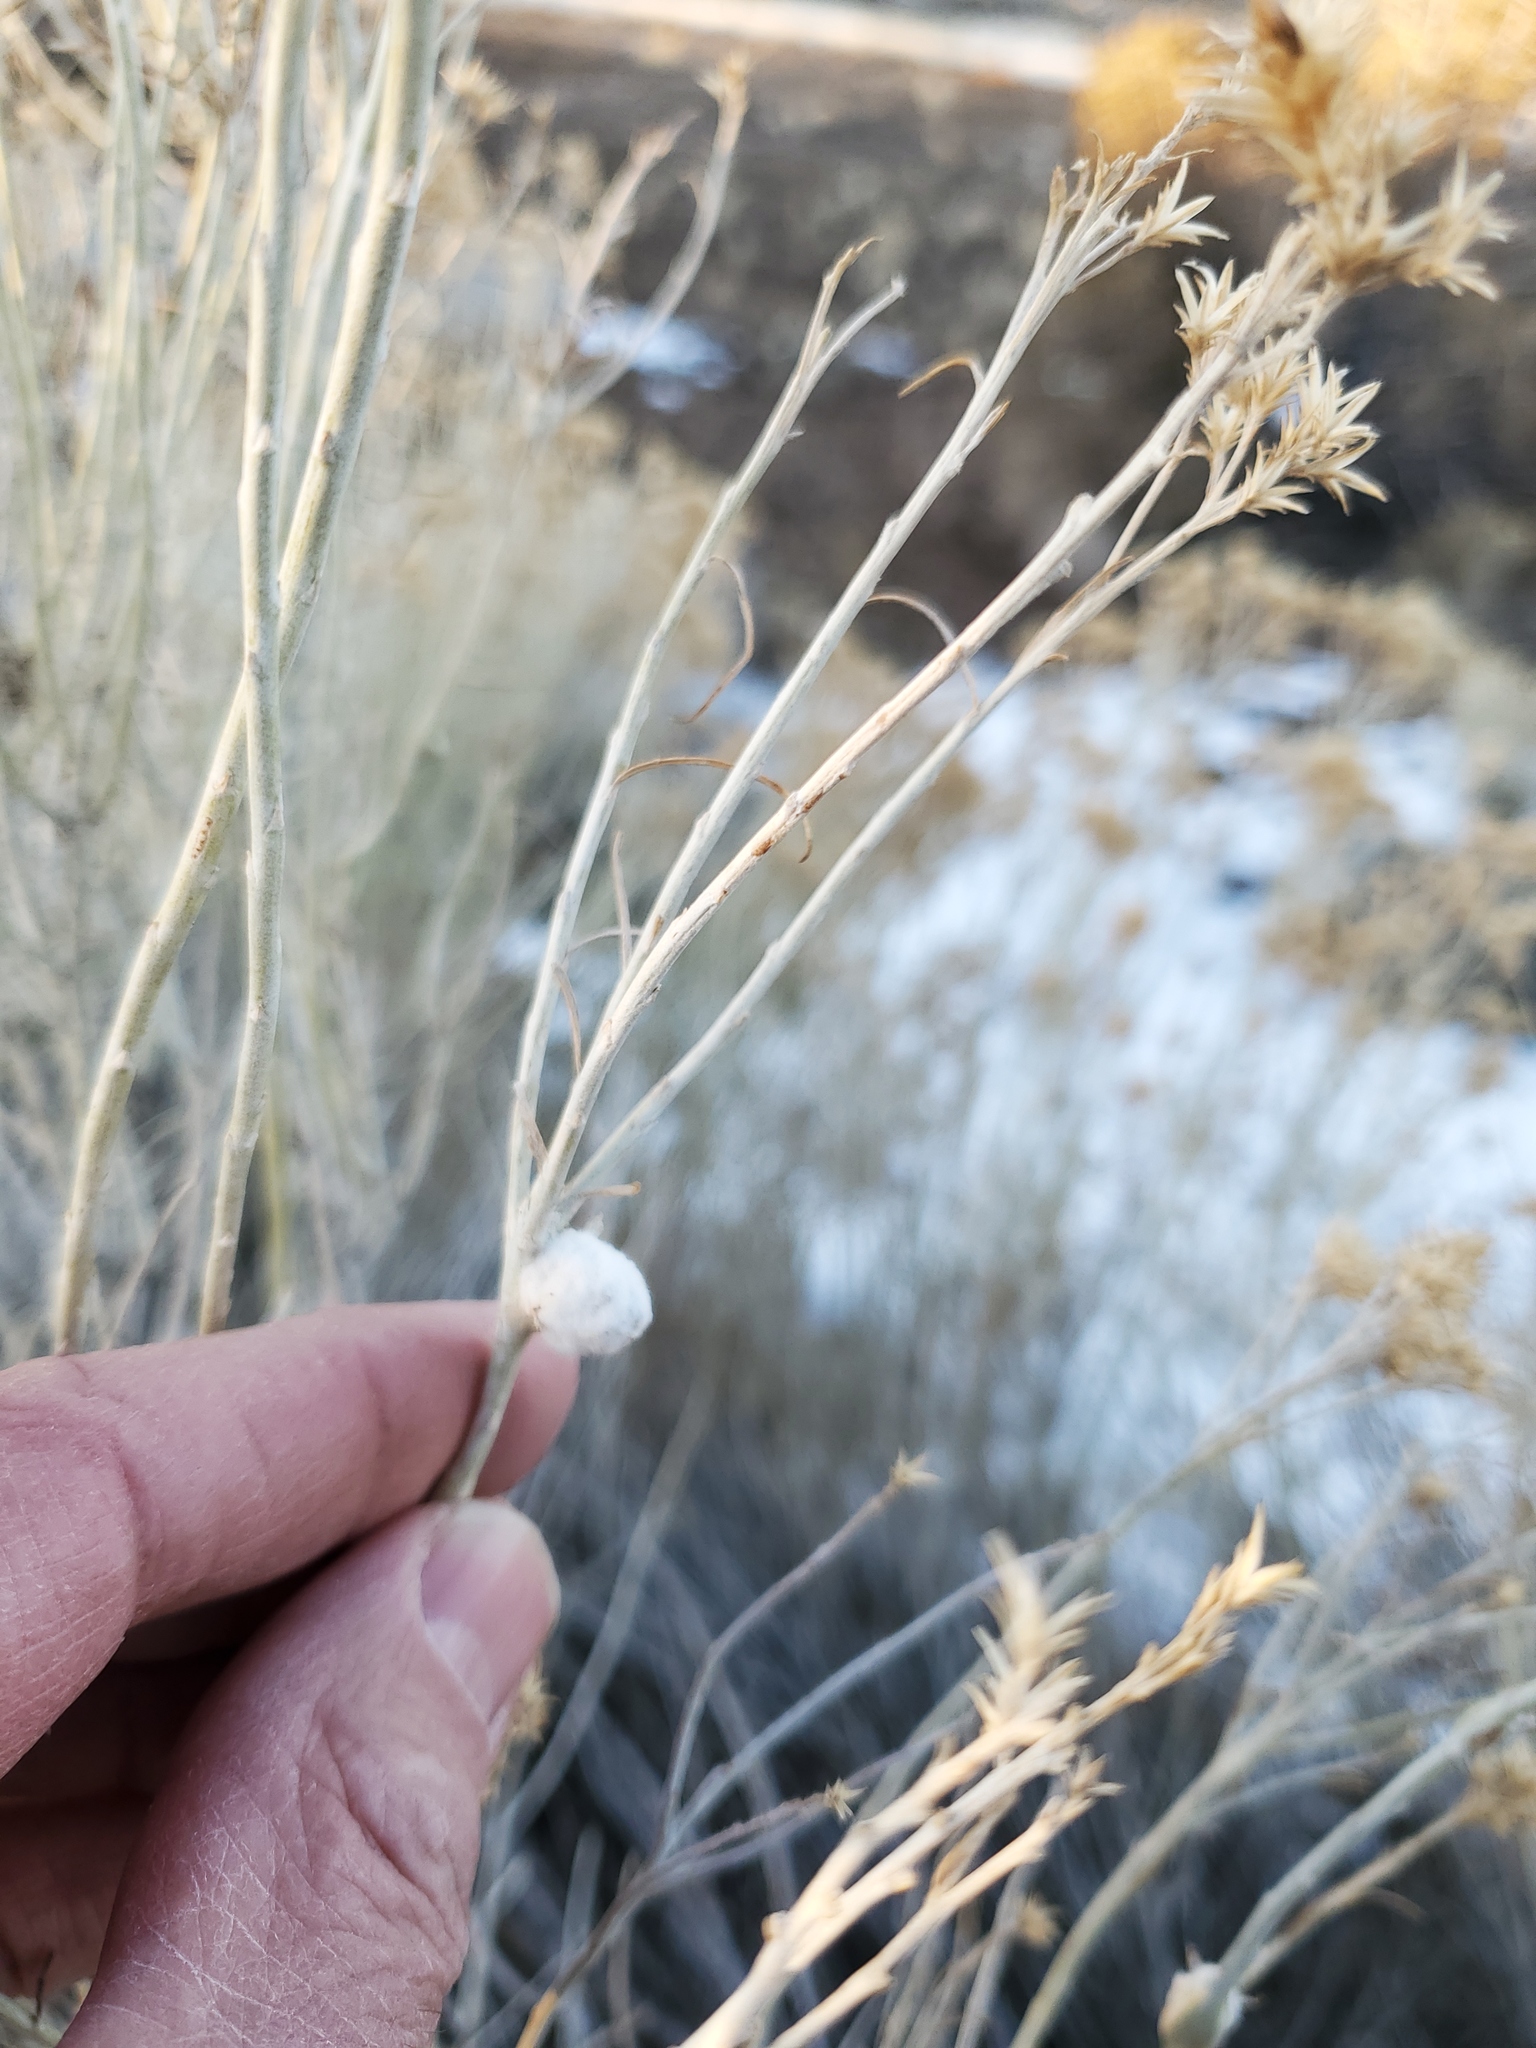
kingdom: Animalia
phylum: Arthropoda
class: Insecta
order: Diptera
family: Tephritidae
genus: Aciurina
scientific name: Aciurina bigeloviae
